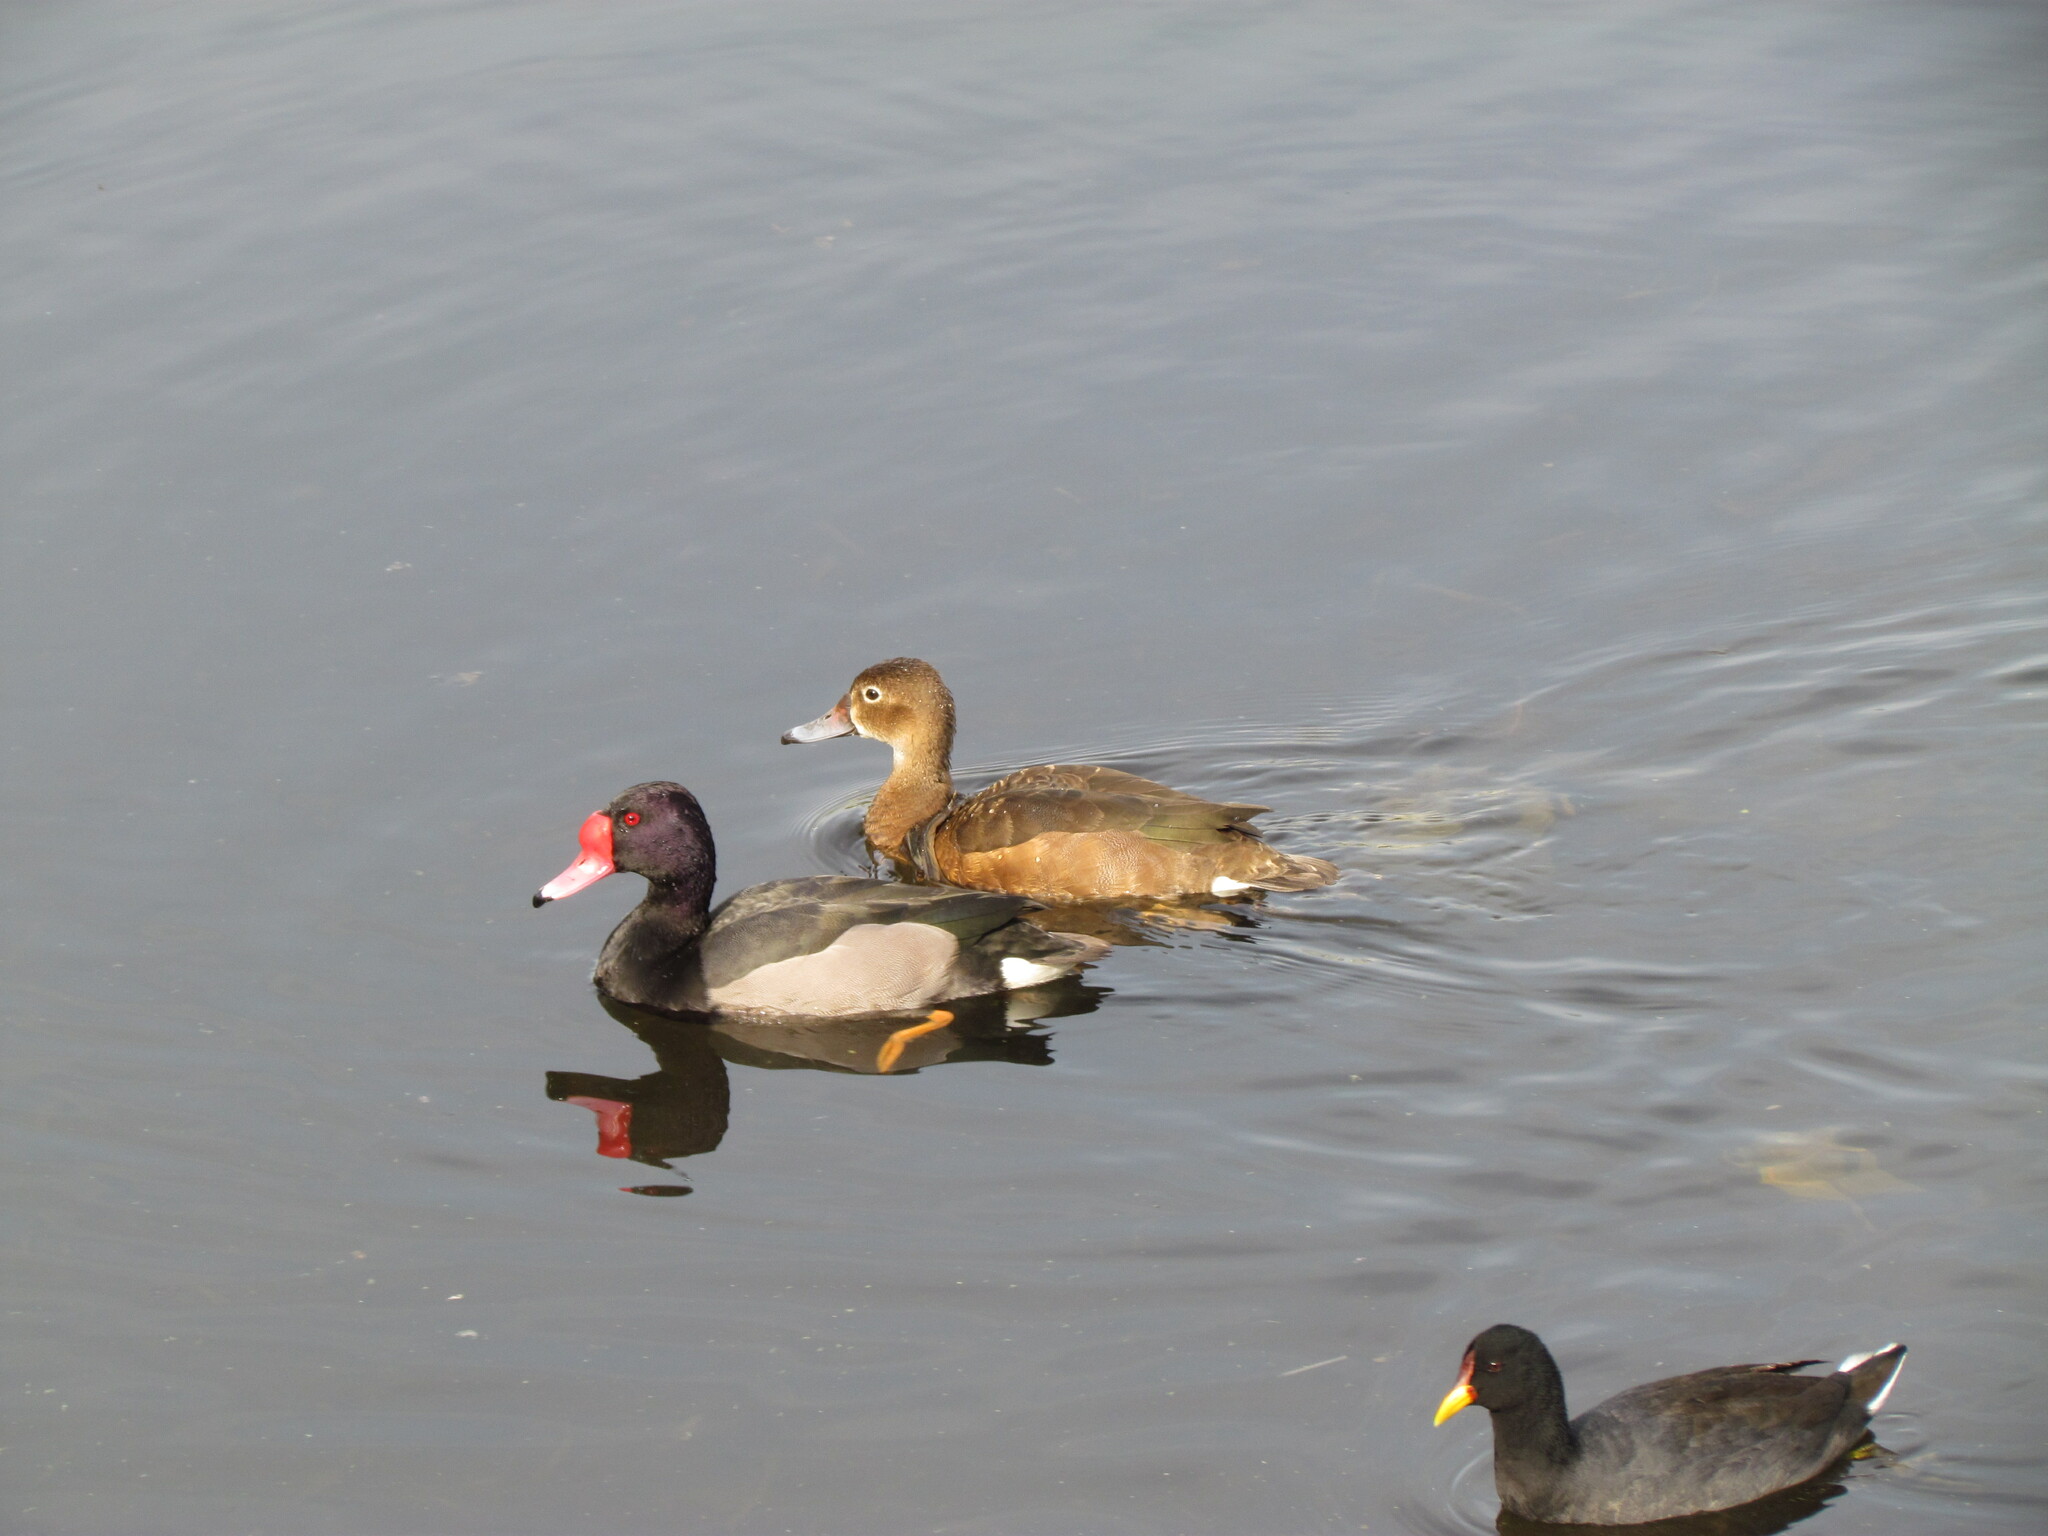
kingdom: Animalia
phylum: Chordata
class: Aves
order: Anseriformes
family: Anatidae
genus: Netta
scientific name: Netta peposaca
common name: Rosy-billed pochard
